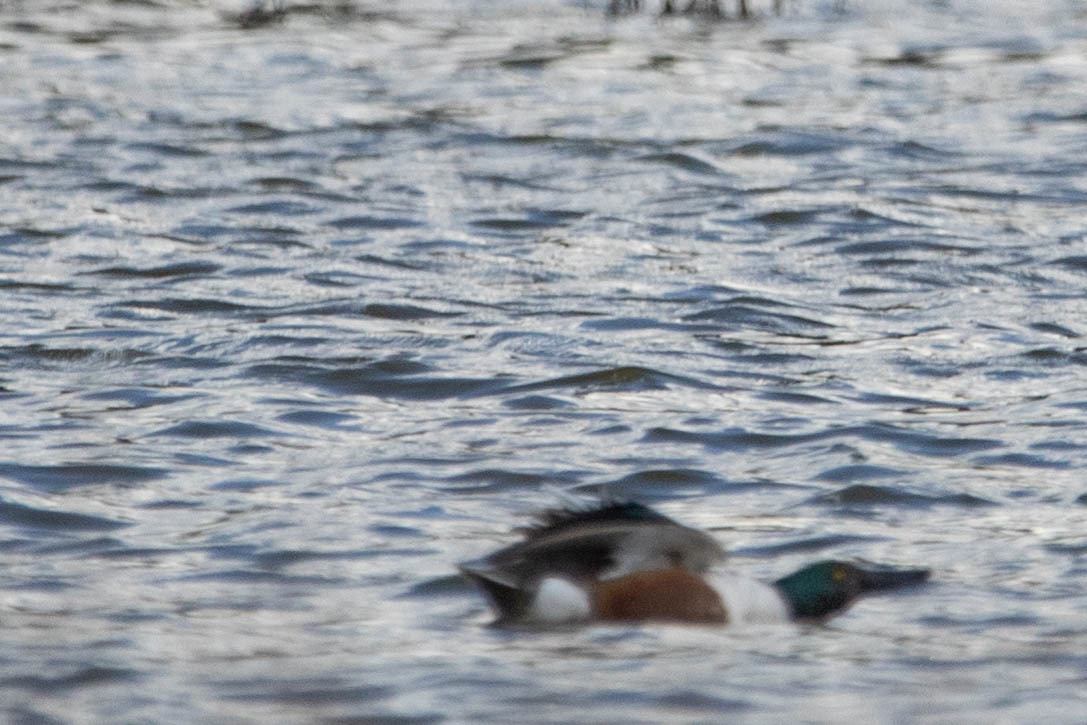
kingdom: Animalia
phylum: Chordata
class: Aves
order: Anseriformes
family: Anatidae
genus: Spatula
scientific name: Spatula clypeata
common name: Northern shoveler
